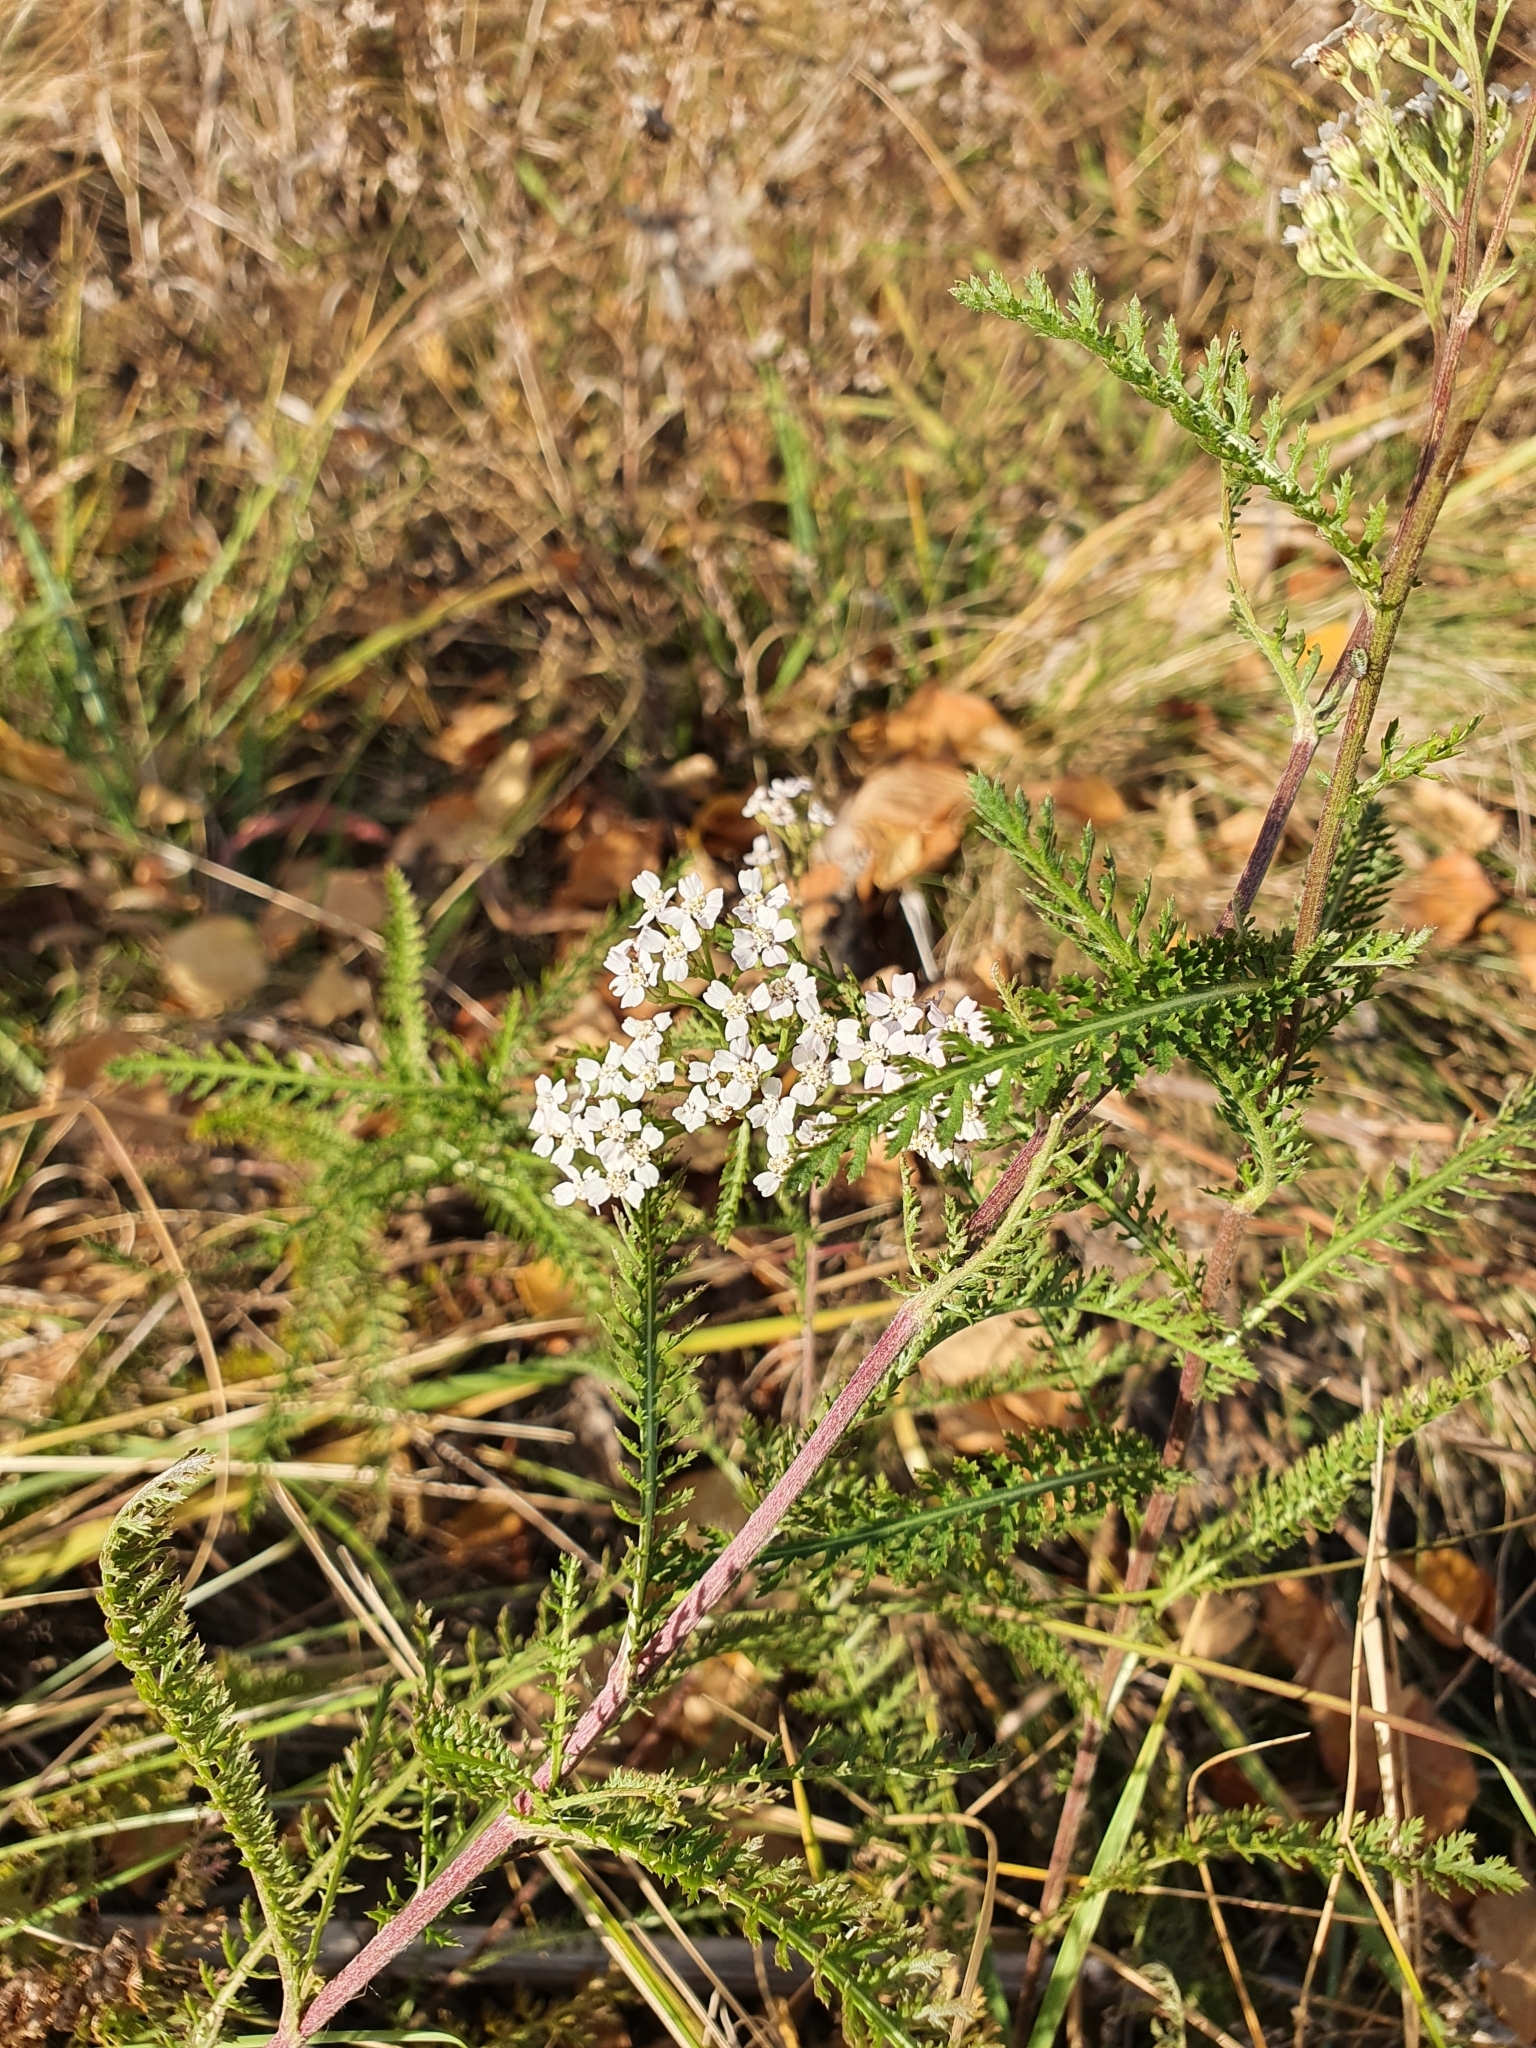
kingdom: Plantae
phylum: Tracheophyta
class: Magnoliopsida
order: Asterales
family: Asteraceae
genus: Achillea
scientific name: Achillea millefolium
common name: Yarrow
